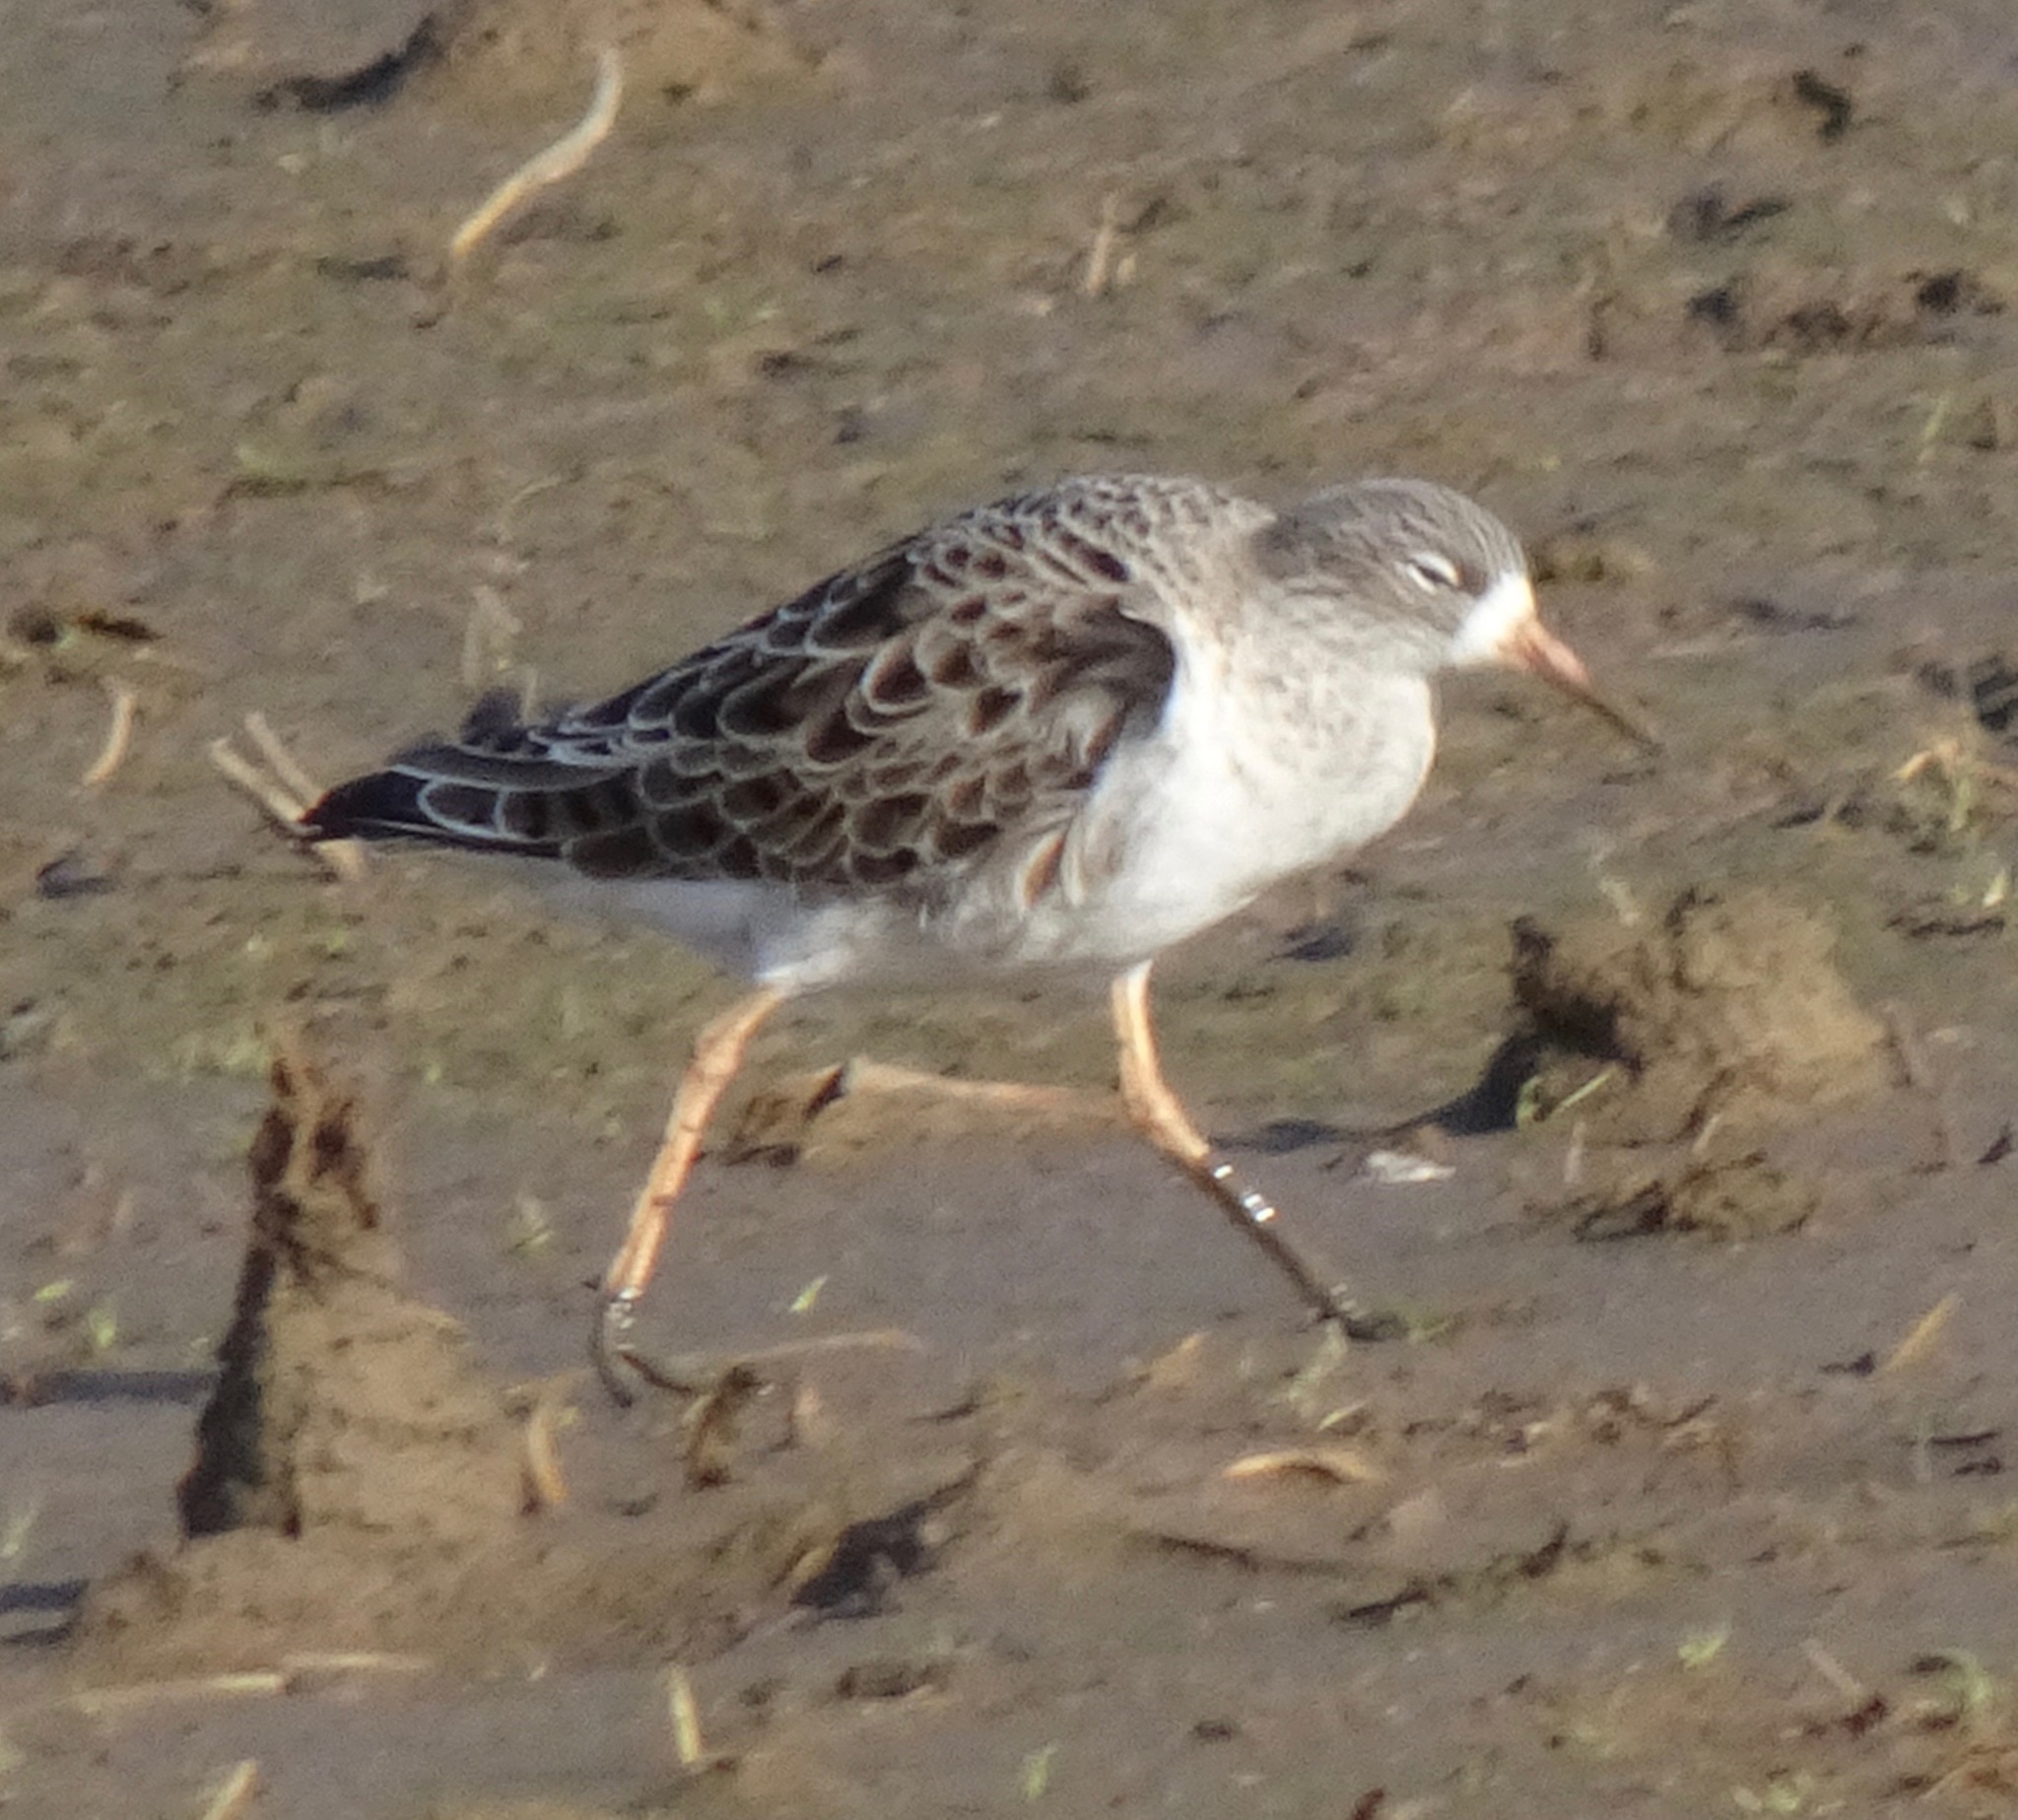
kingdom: Animalia
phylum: Chordata
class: Aves
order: Charadriiformes
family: Scolopacidae
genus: Calidris
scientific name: Calidris pugnax
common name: Ruff
